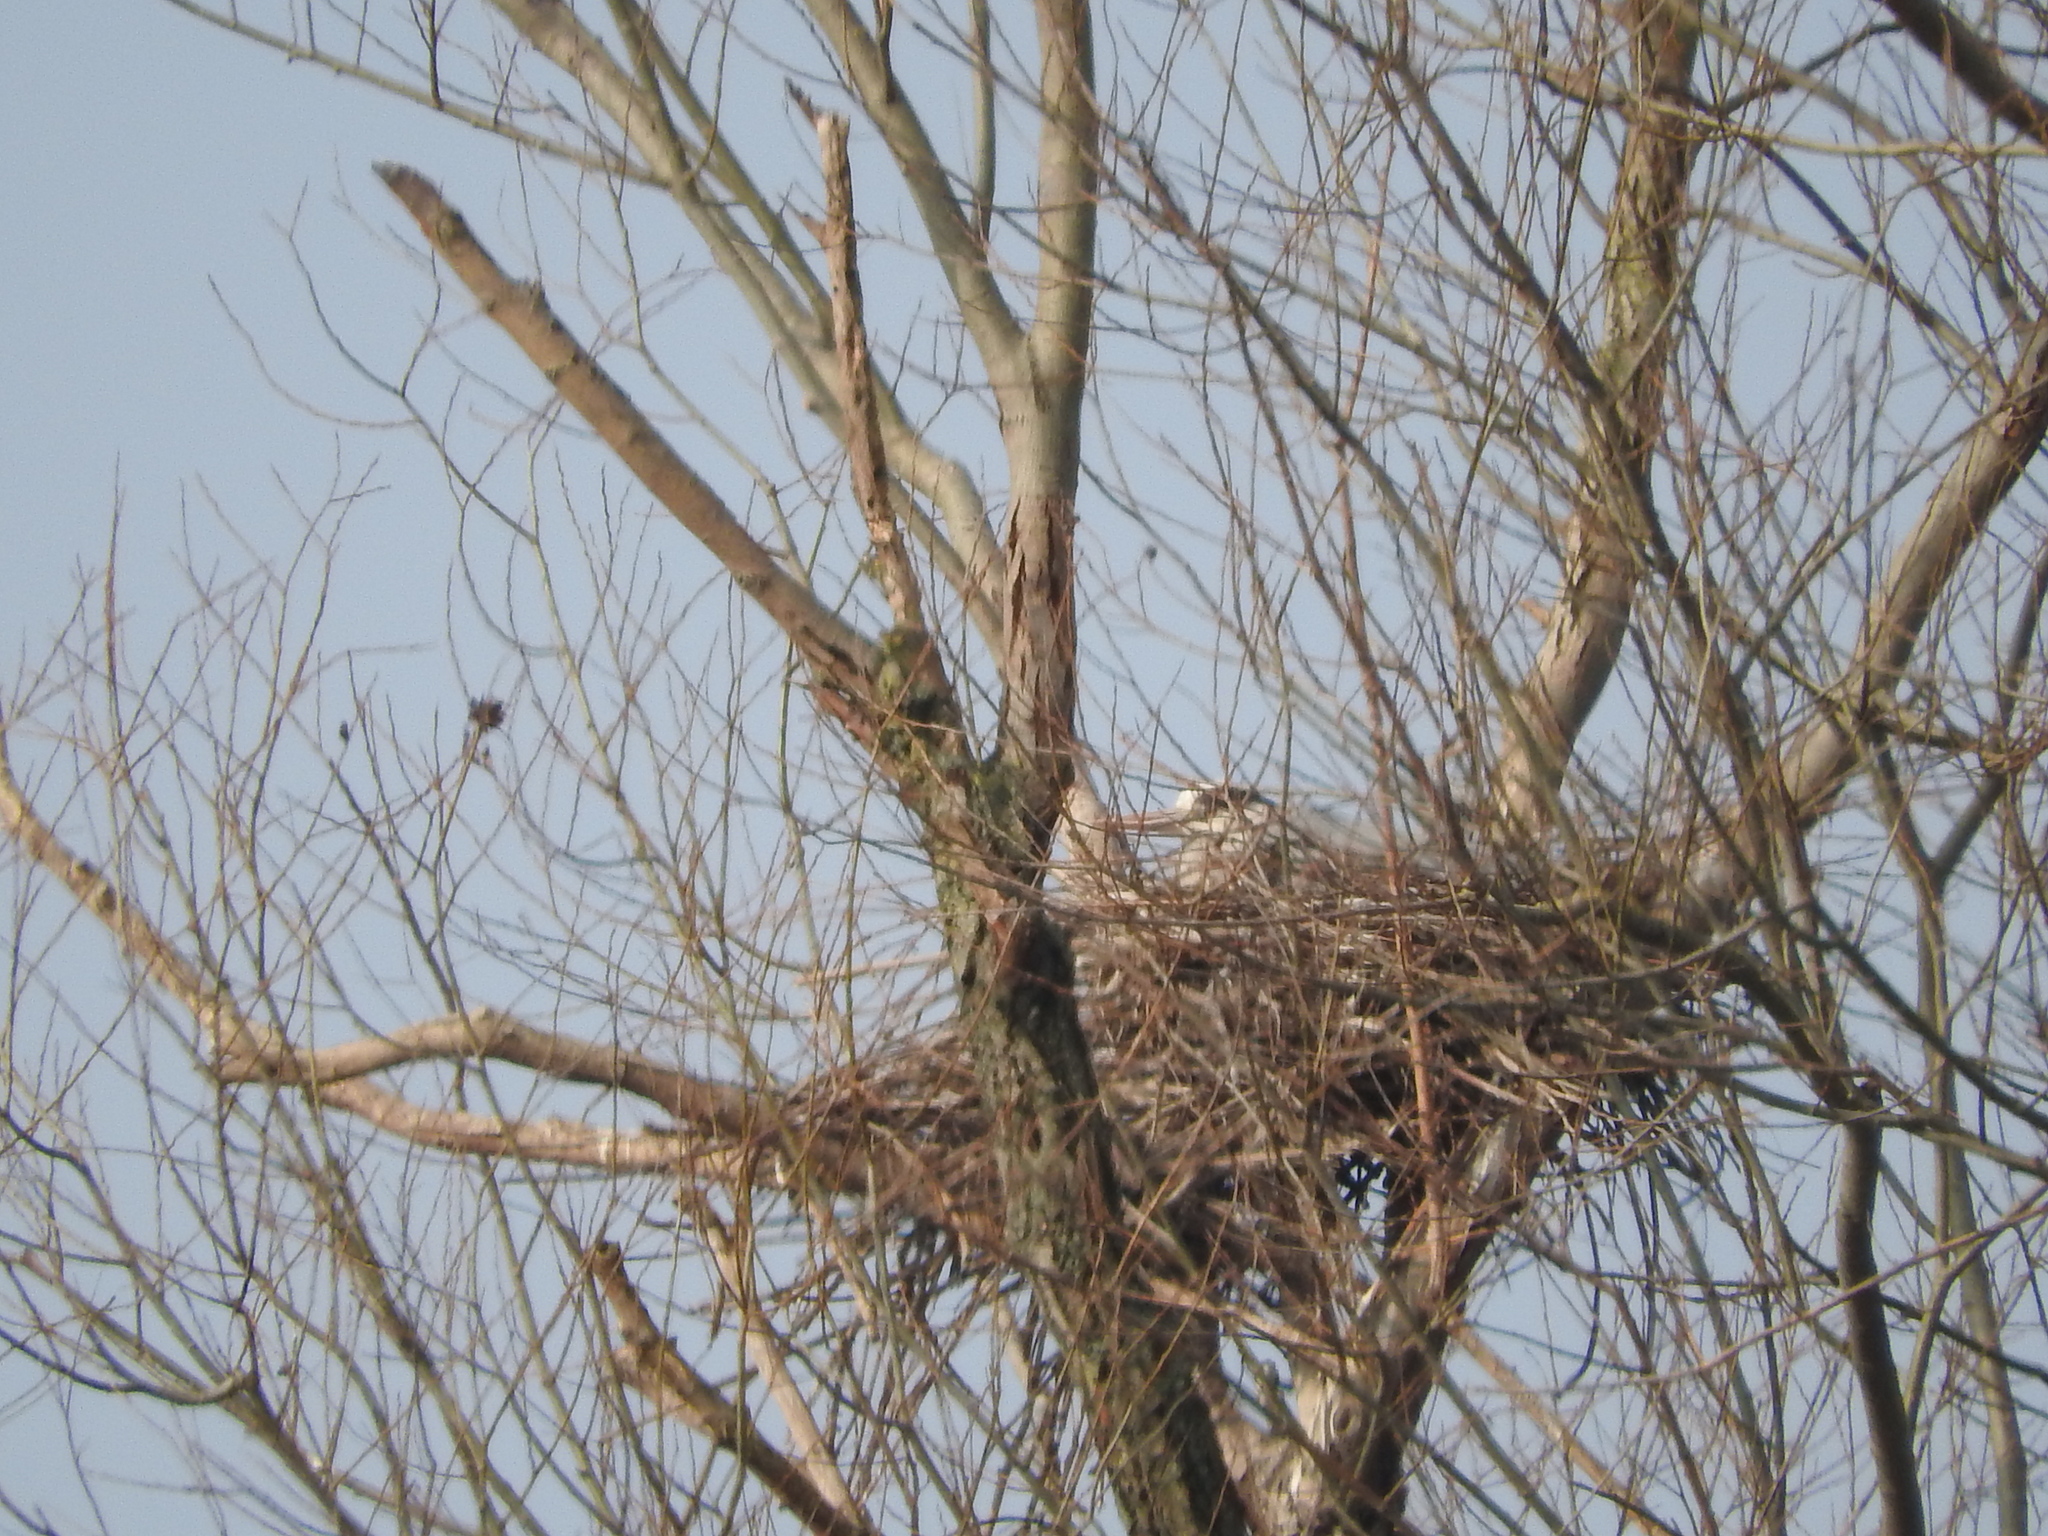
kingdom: Animalia
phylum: Chordata
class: Aves
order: Pelecaniformes
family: Ardeidae
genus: Ardea
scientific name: Ardea cinerea
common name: Grey heron
